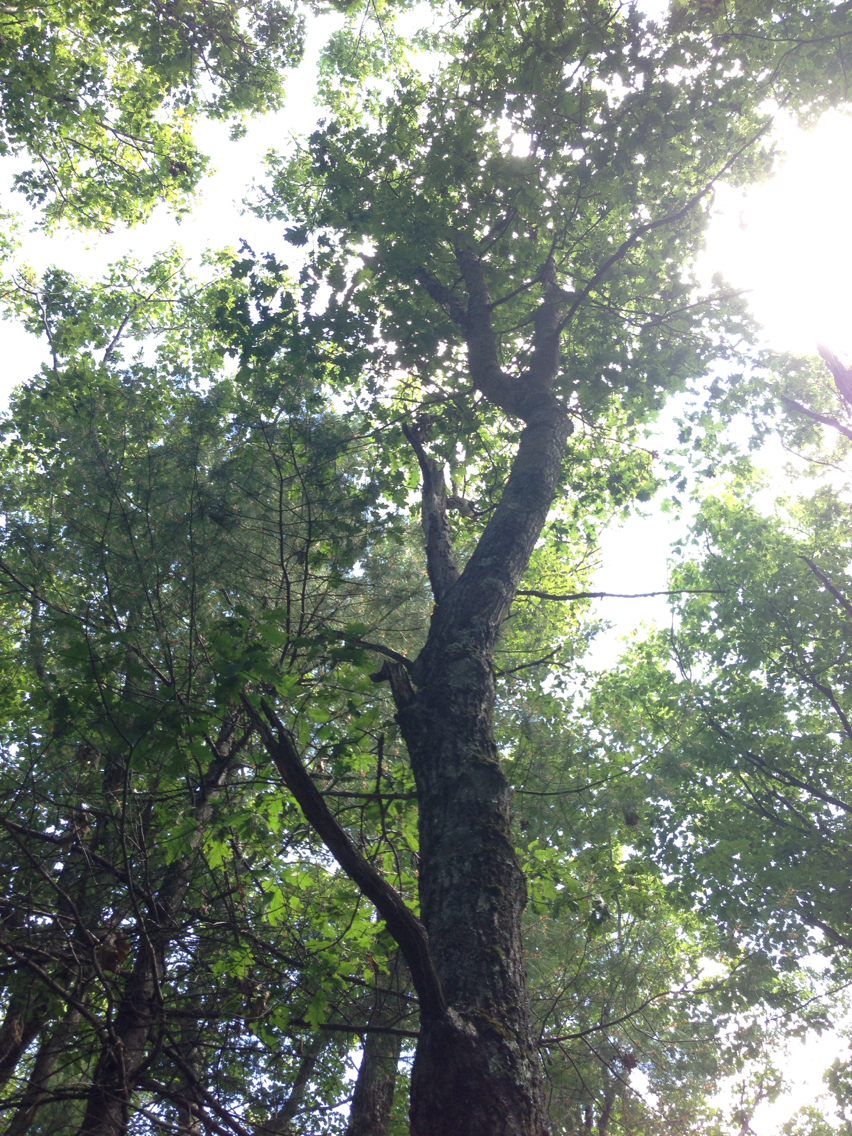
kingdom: Plantae
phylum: Tracheophyta
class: Magnoliopsida
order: Fagales
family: Fagaceae
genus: Quercus
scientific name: Quercus rubra
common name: Red oak
